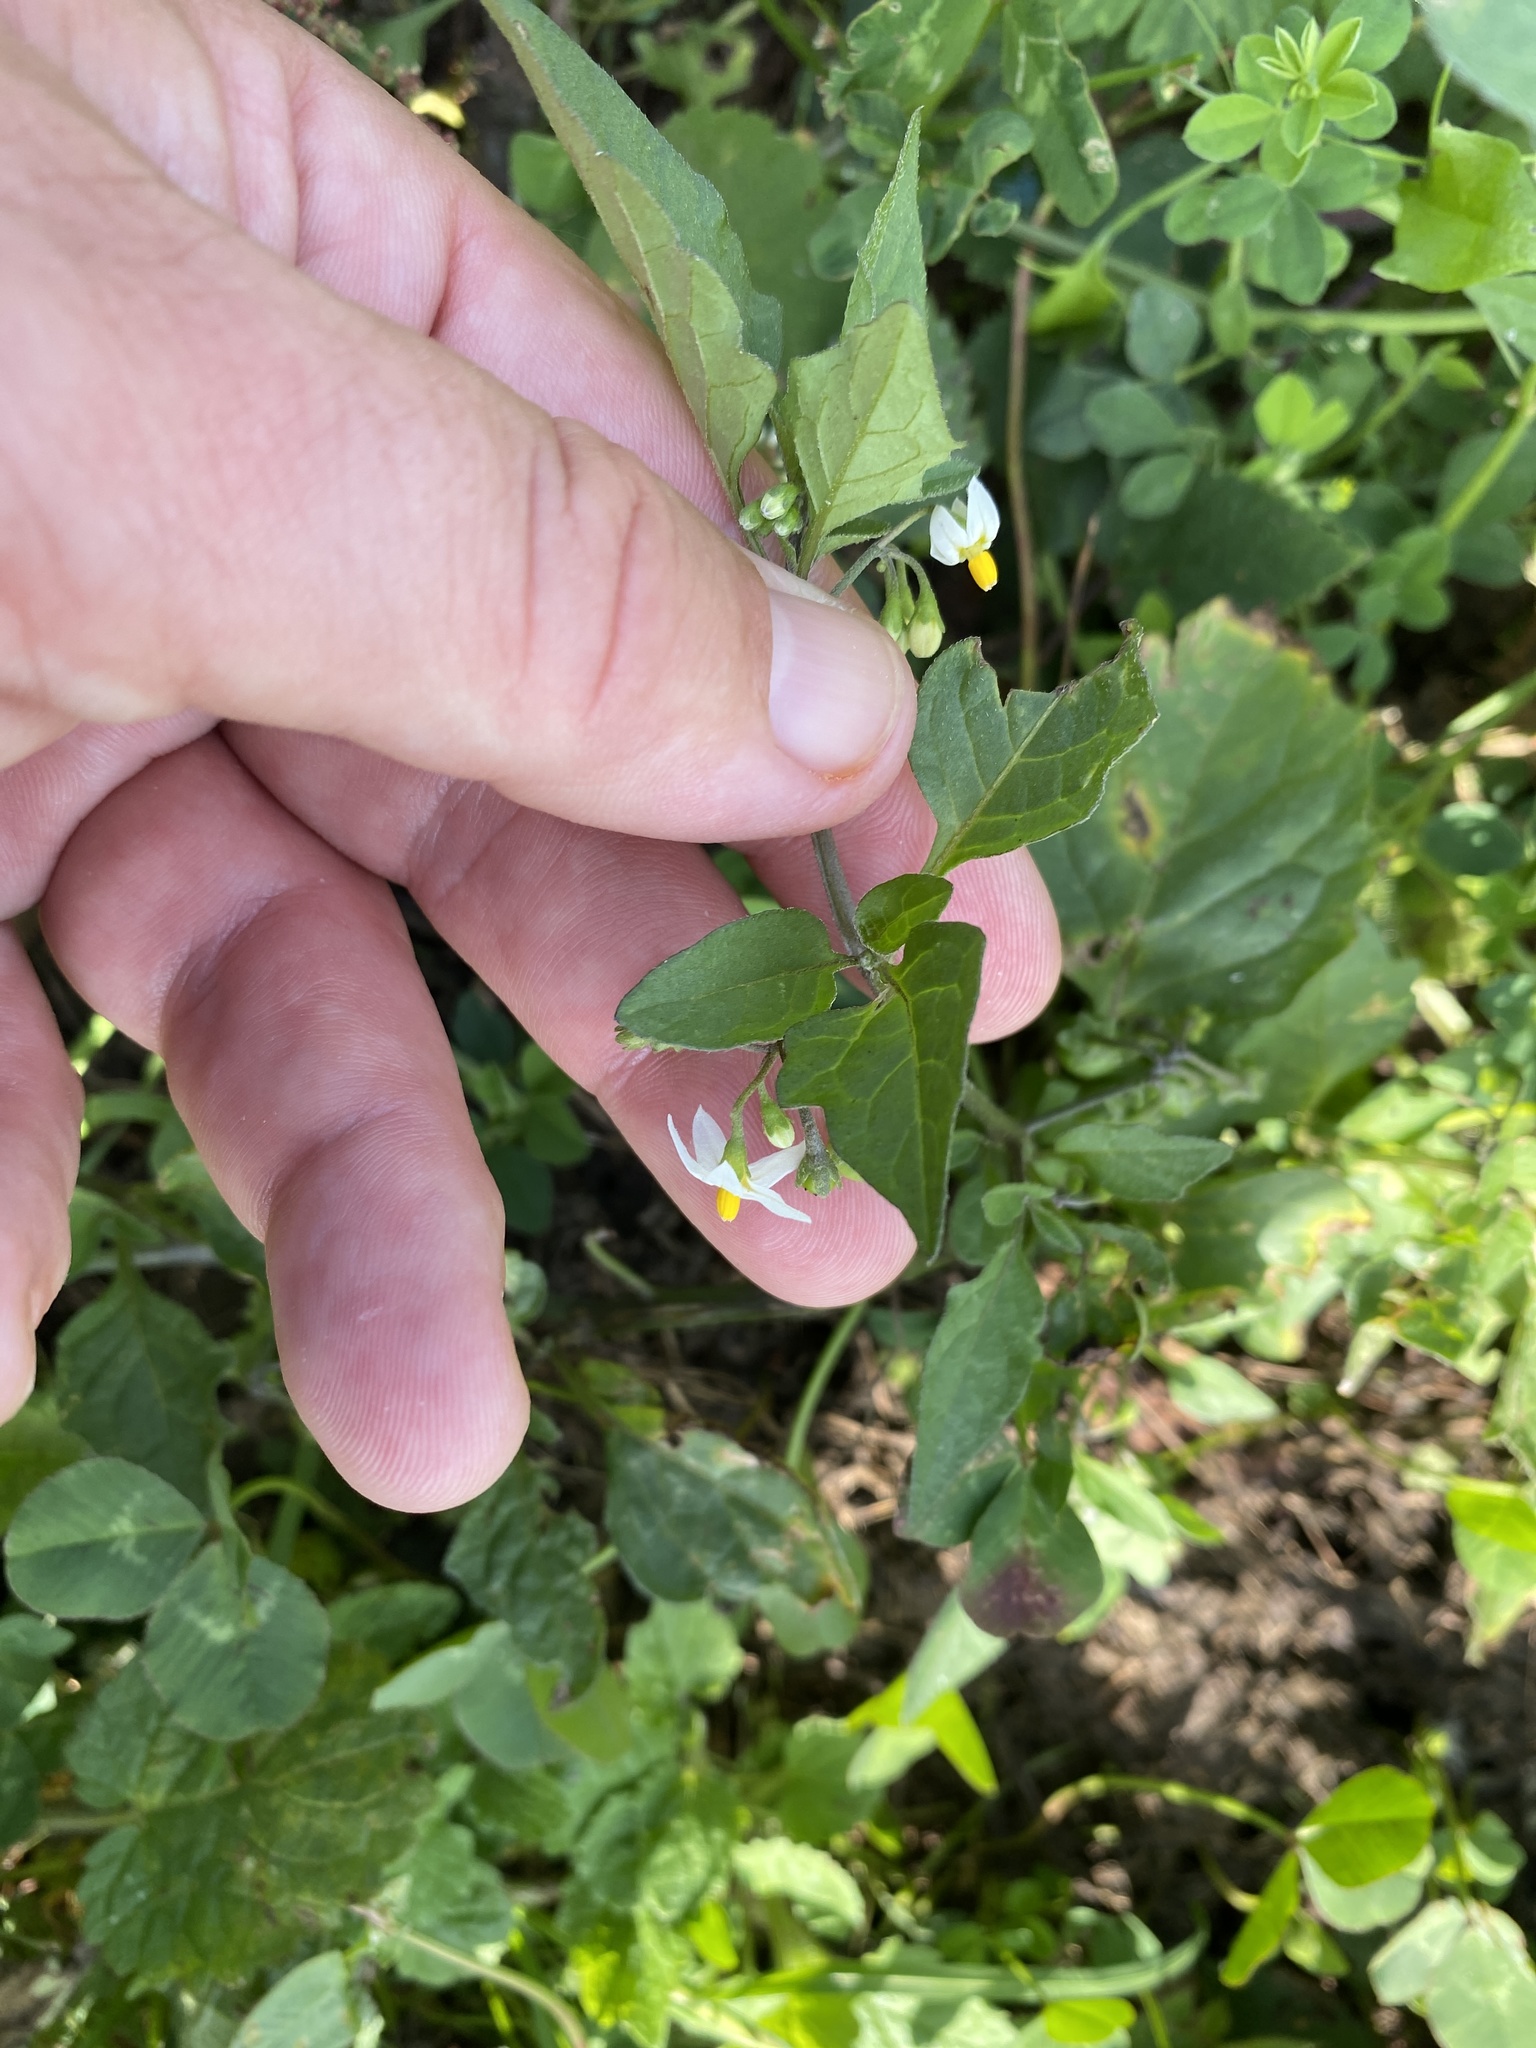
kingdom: Plantae
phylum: Tracheophyta
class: Magnoliopsida
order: Solanales
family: Solanaceae
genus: Solanum
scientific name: Solanum nigrum
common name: Black nightshade
